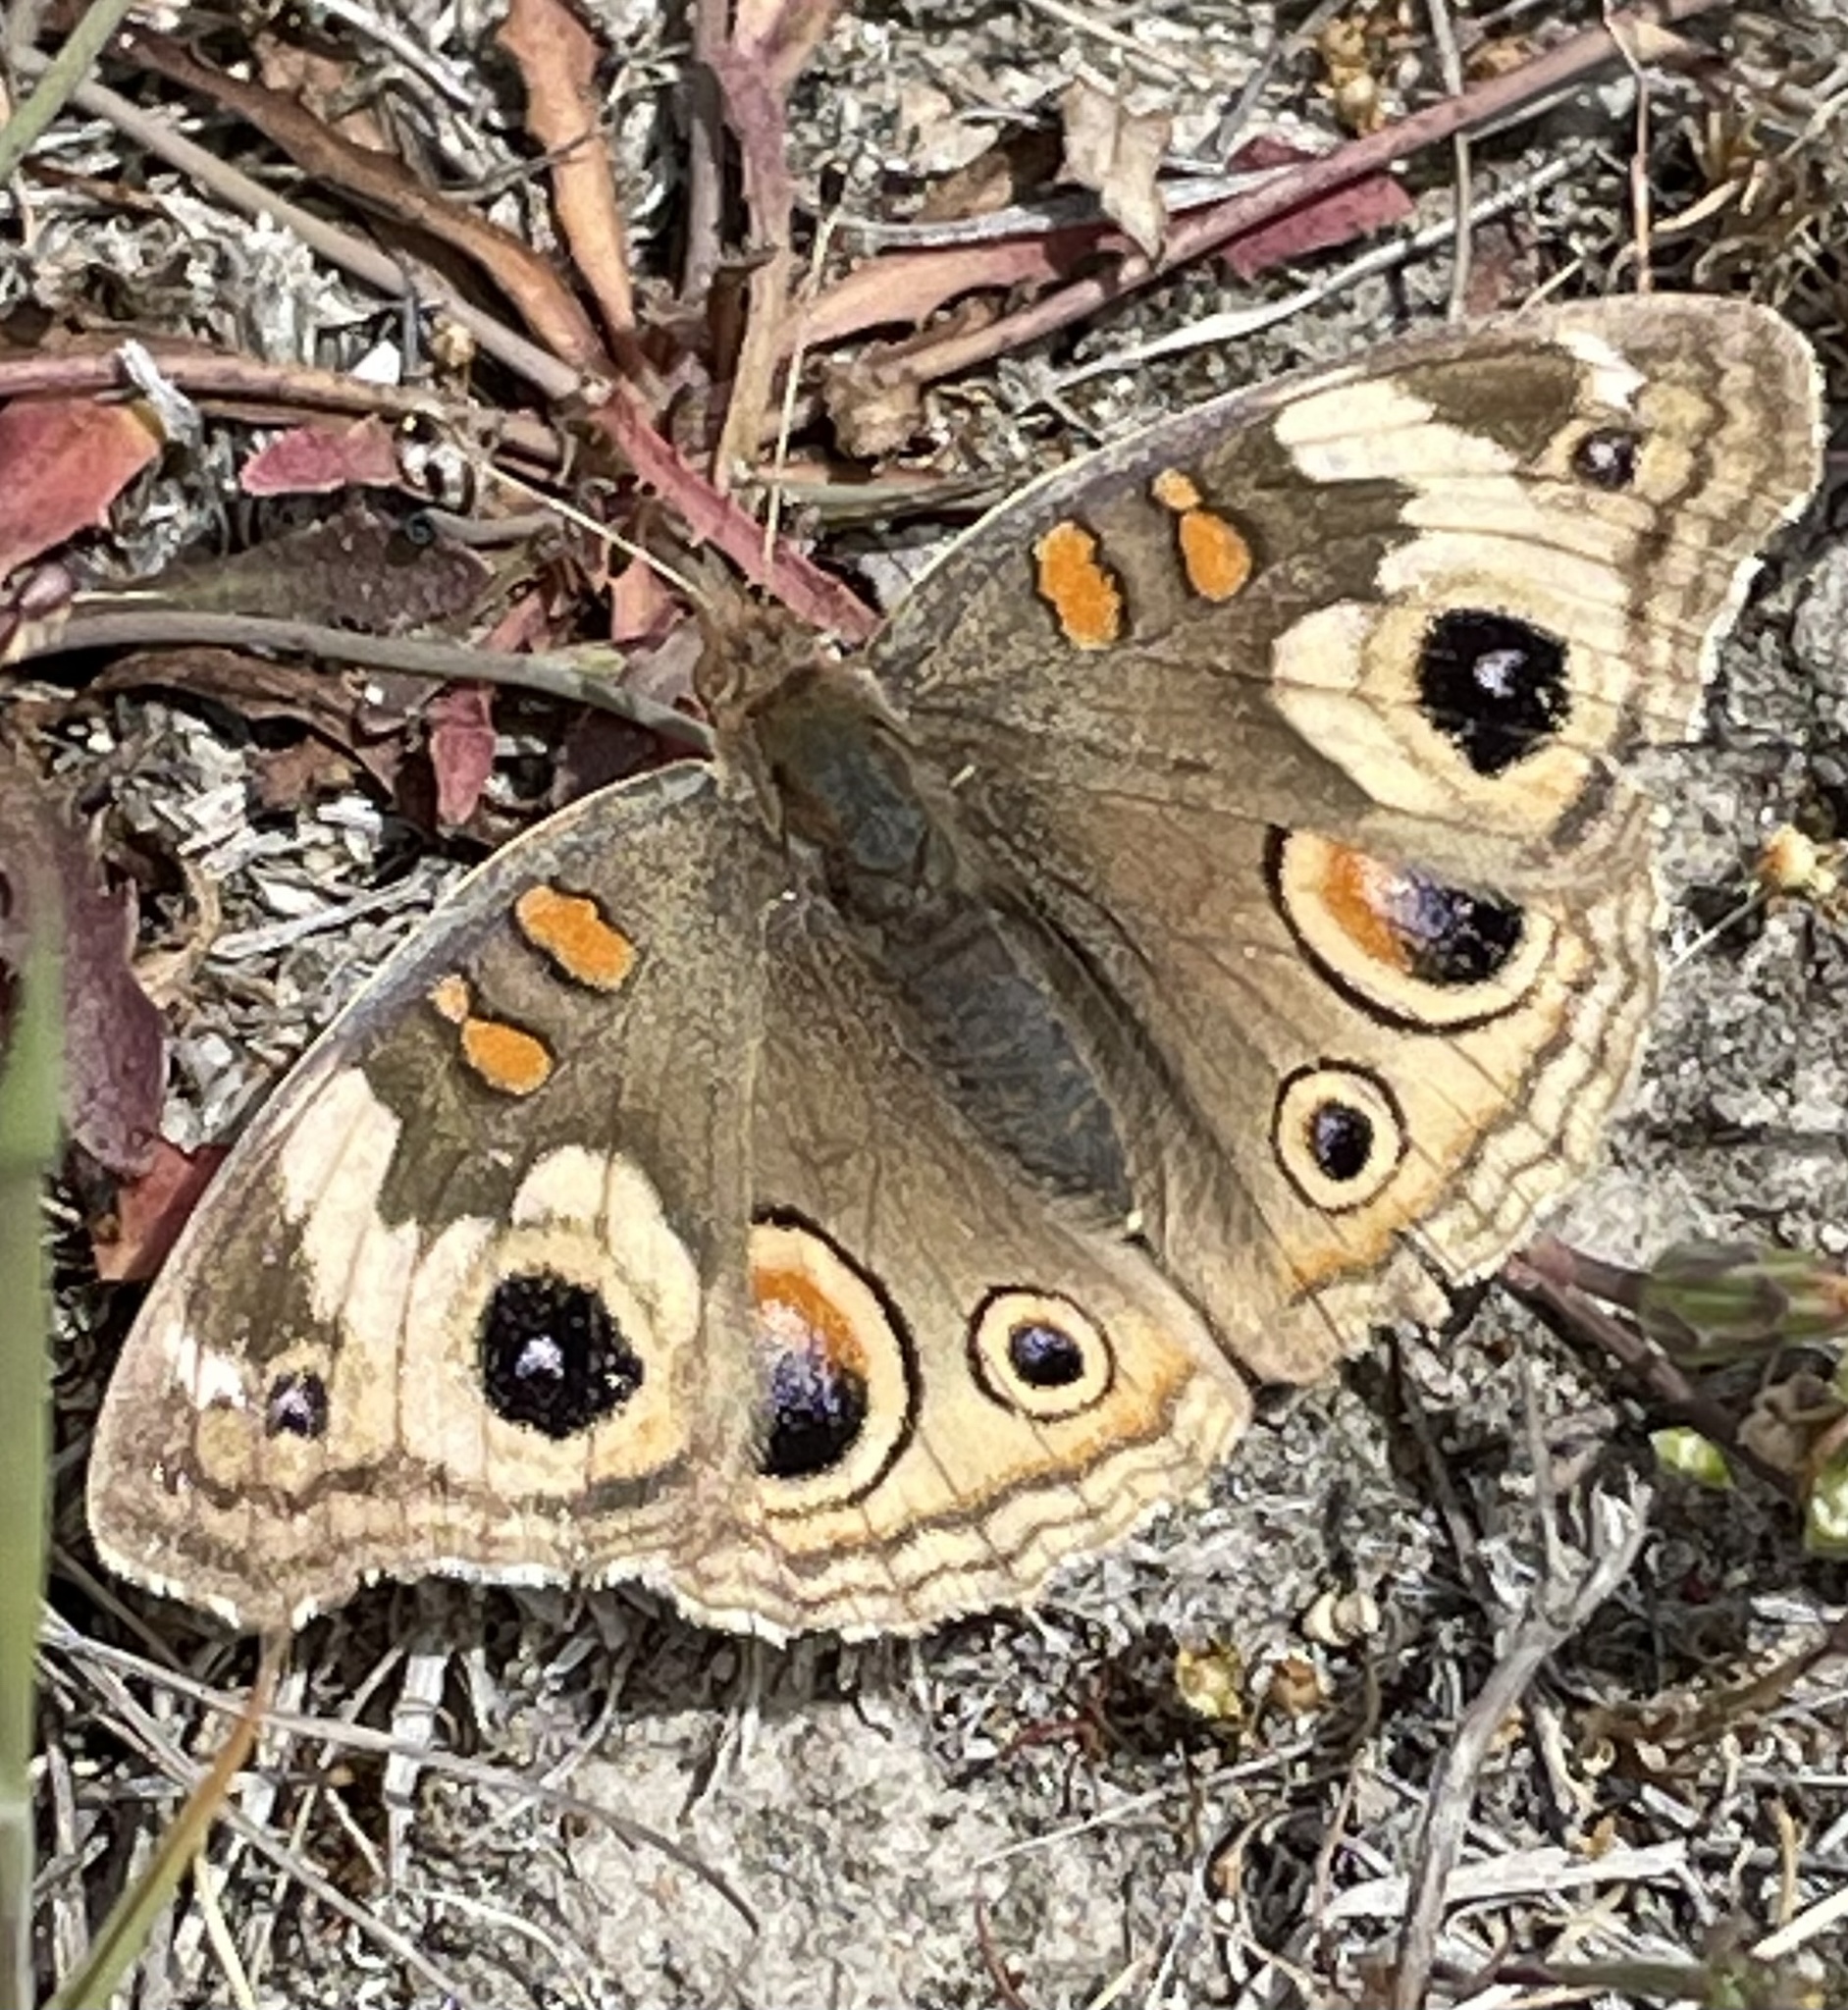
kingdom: Animalia
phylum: Arthropoda
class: Insecta
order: Lepidoptera
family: Nymphalidae
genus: Junonia
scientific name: Junonia grisea
